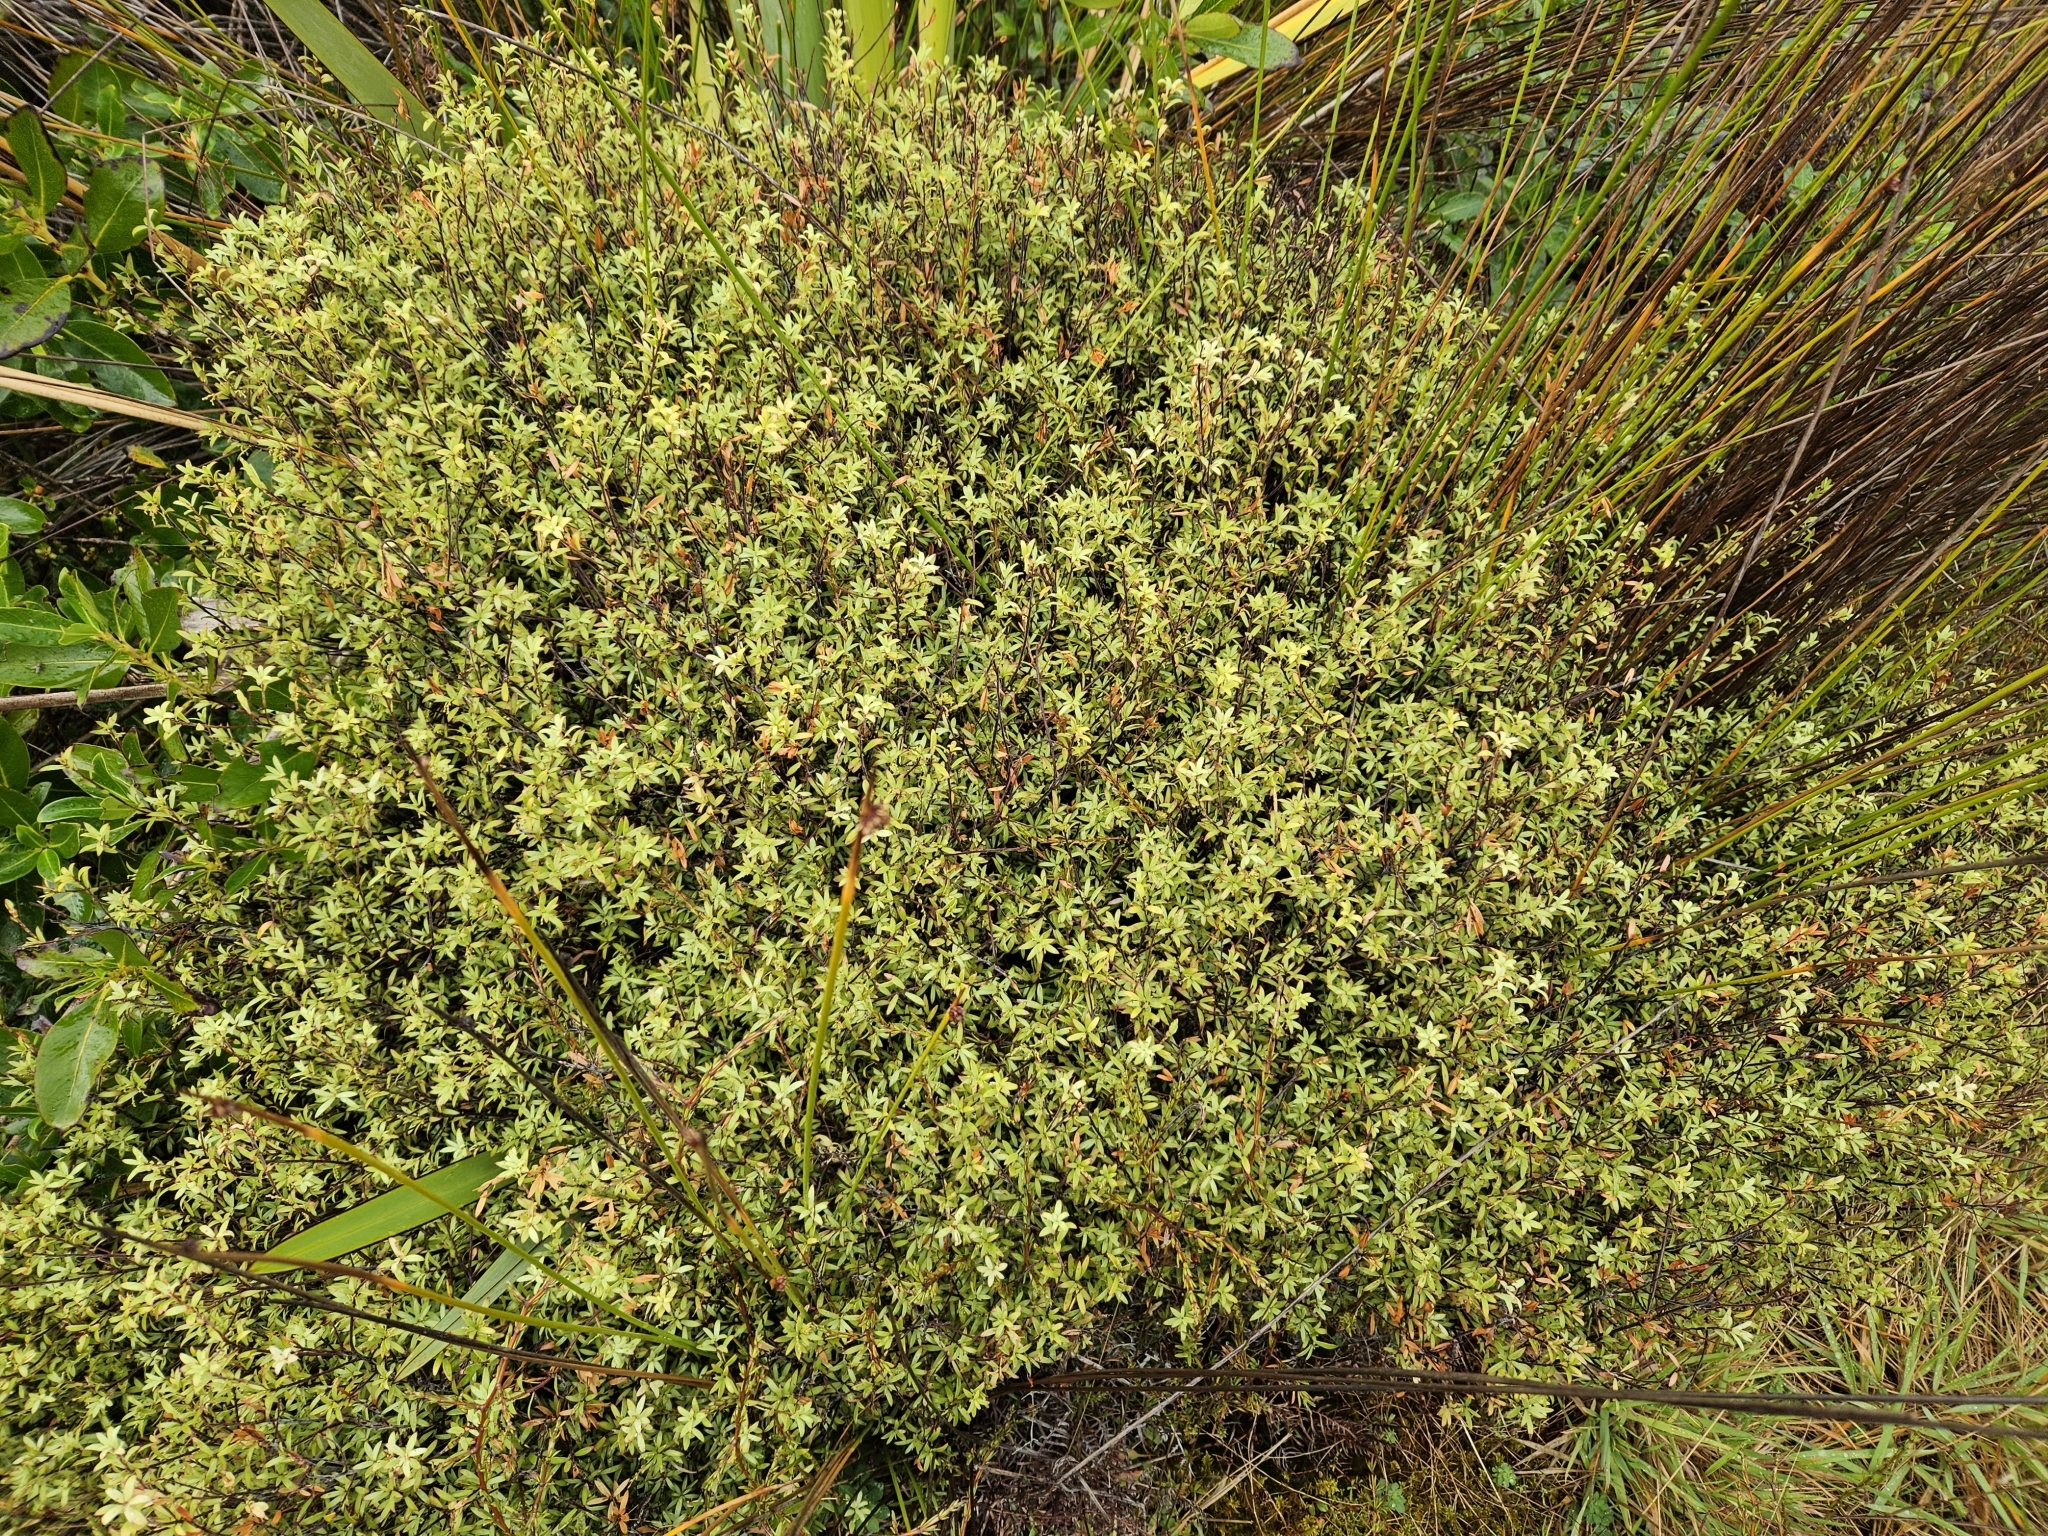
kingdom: Plantae
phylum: Tracheophyta
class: Magnoliopsida
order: Ericales
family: Ericaceae
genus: Leucopogon
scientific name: Leucopogon fasciculatus
